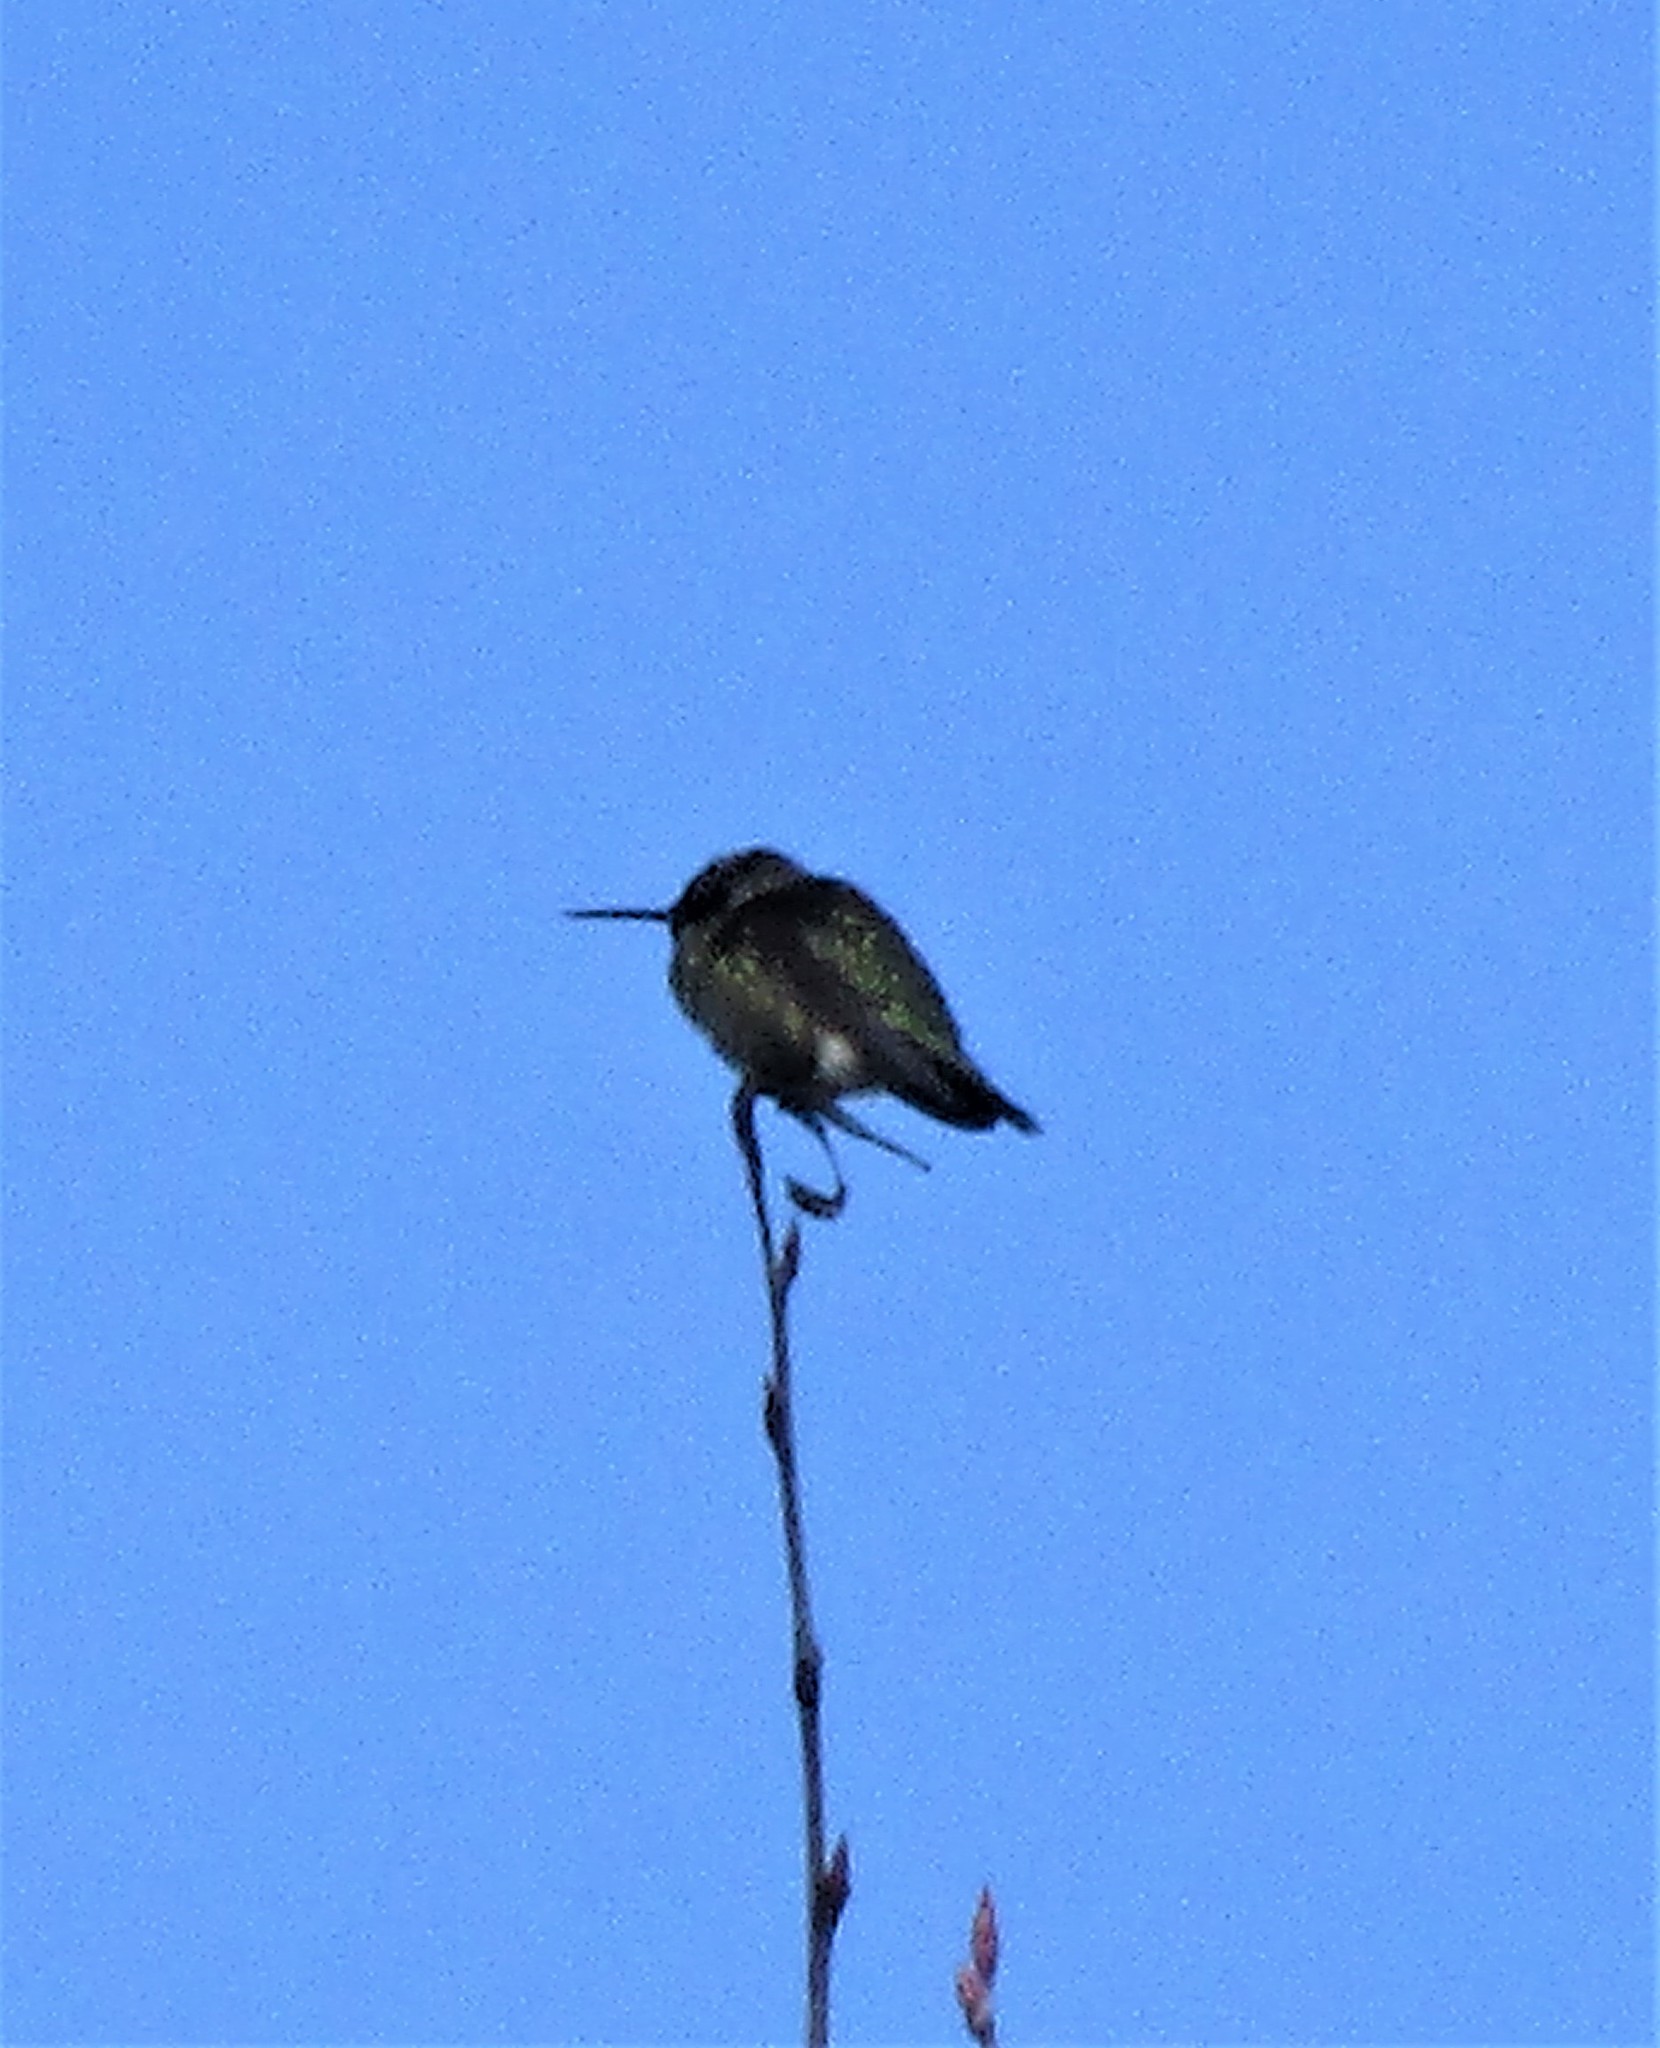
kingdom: Animalia
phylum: Chordata
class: Aves
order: Apodiformes
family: Trochilidae
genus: Calypte
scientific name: Calypte anna
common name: Anna's hummingbird
